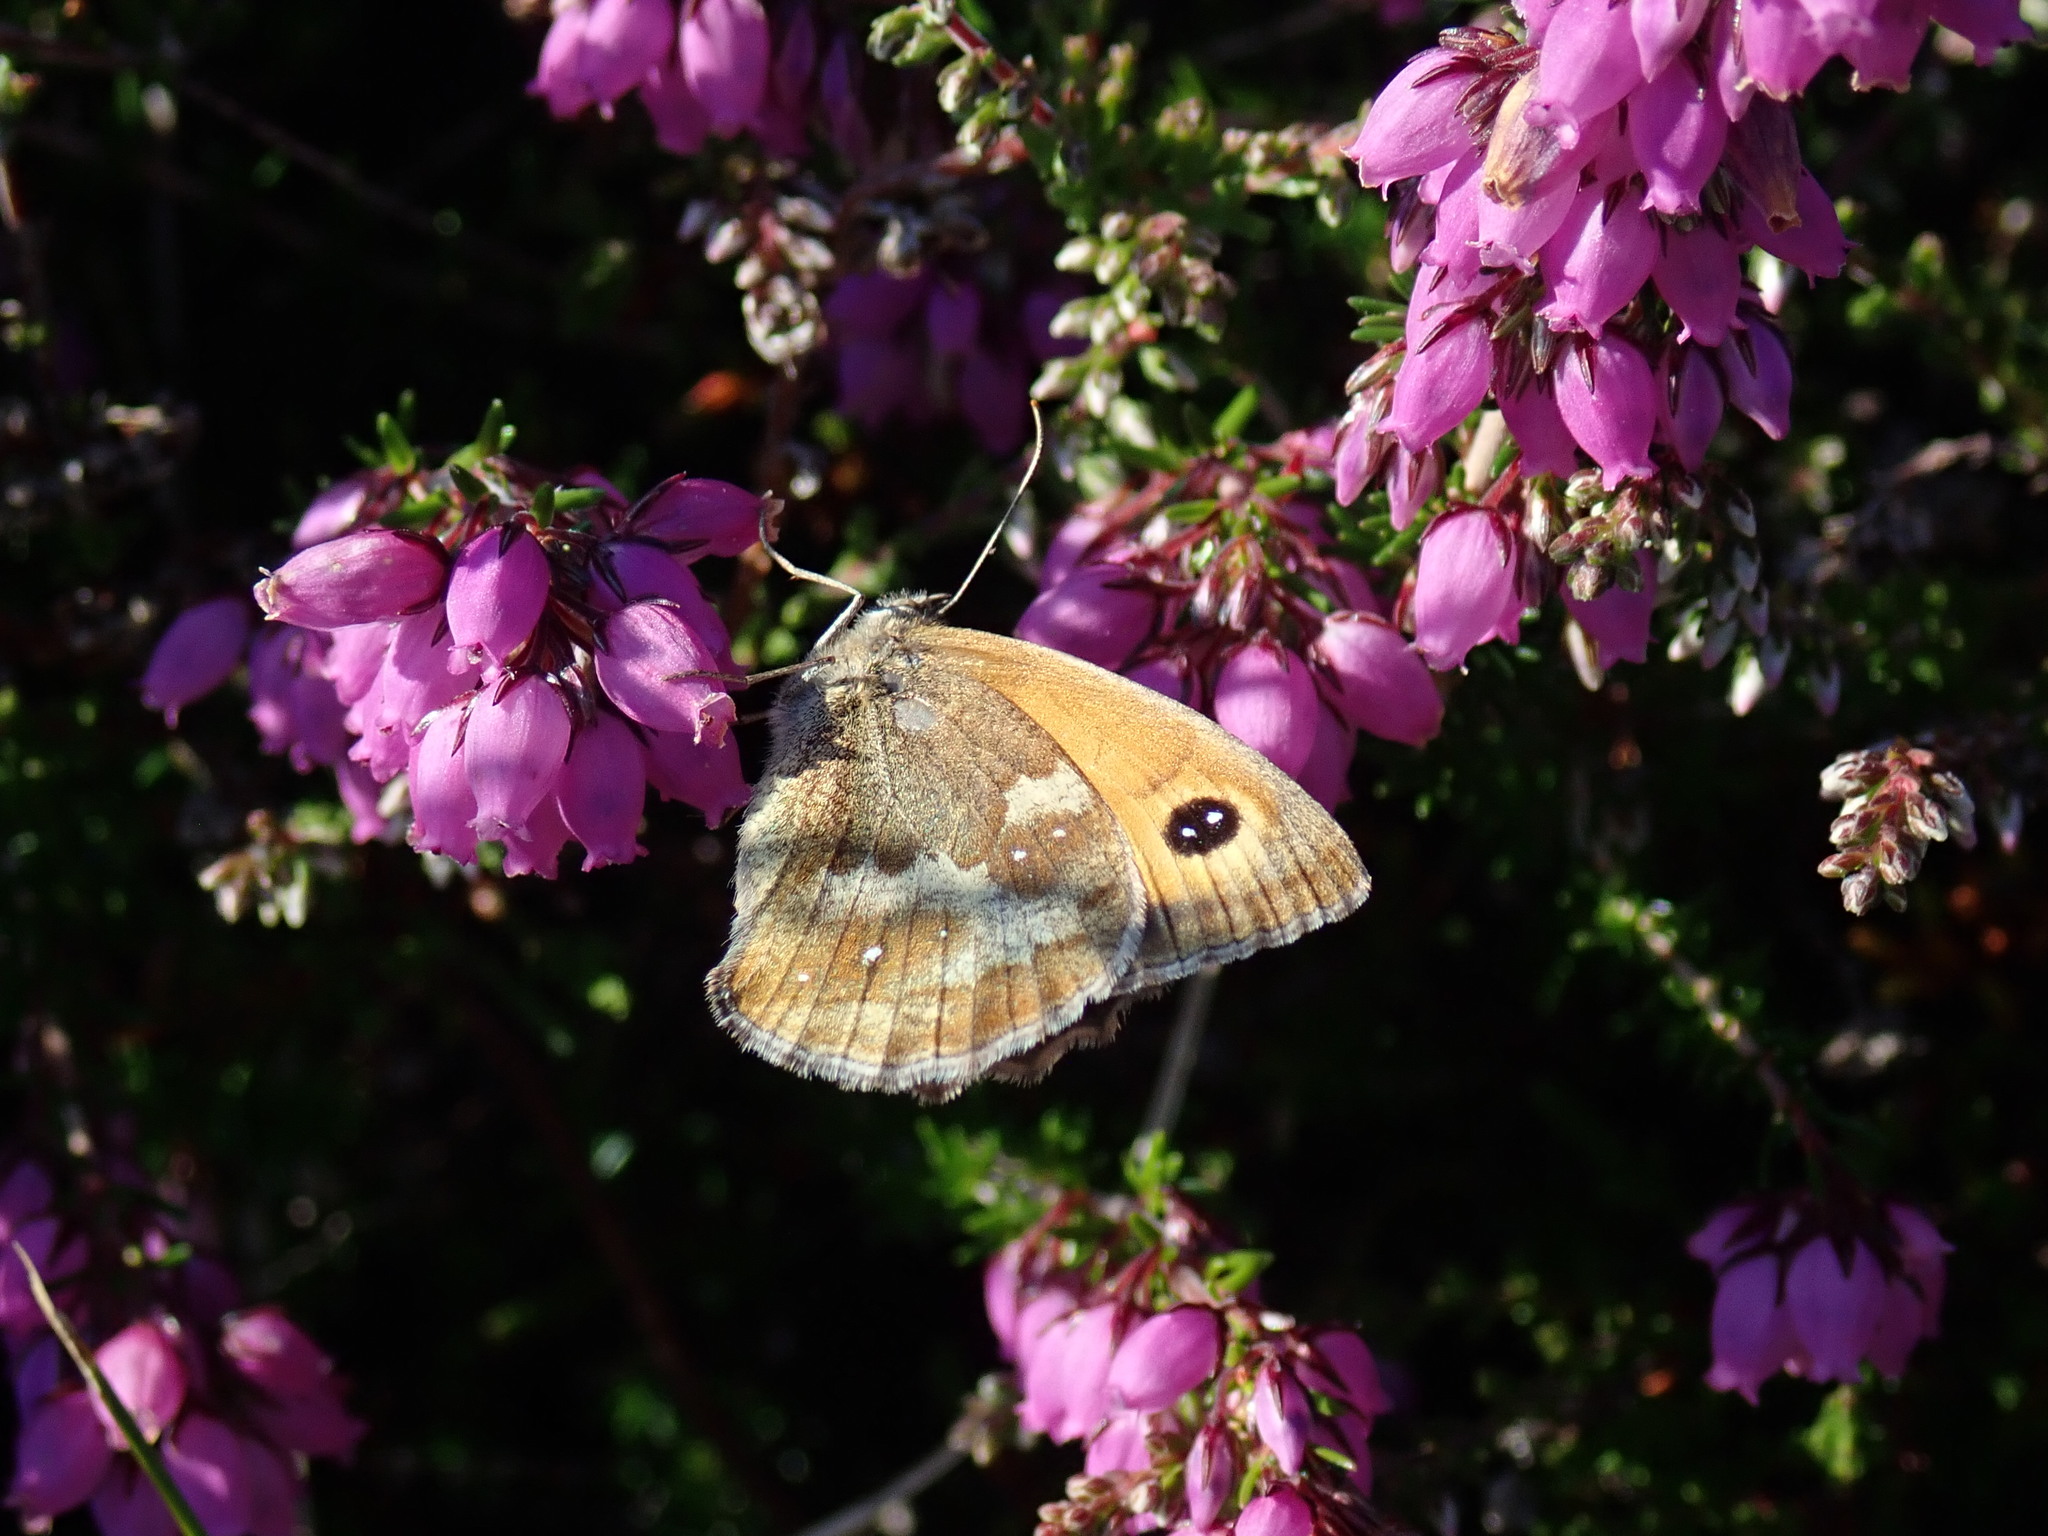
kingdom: Animalia
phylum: Arthropoda
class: Insecta
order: Lepidoptera
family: Nymphalidae
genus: Pyronia
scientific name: Pyronia tithonus
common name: Gatekeeper
